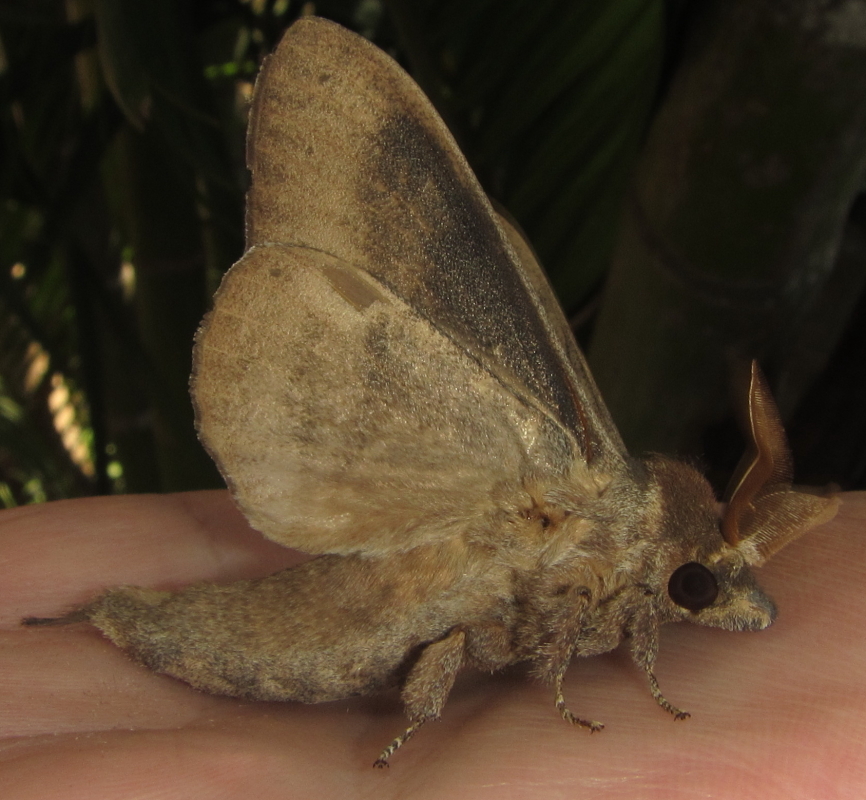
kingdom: Animalia
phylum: Arthropoda
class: Insecta
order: Lepidoptera
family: Lasiocampidae
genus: Catalebeda
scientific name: Catalebeda cuneilinea
